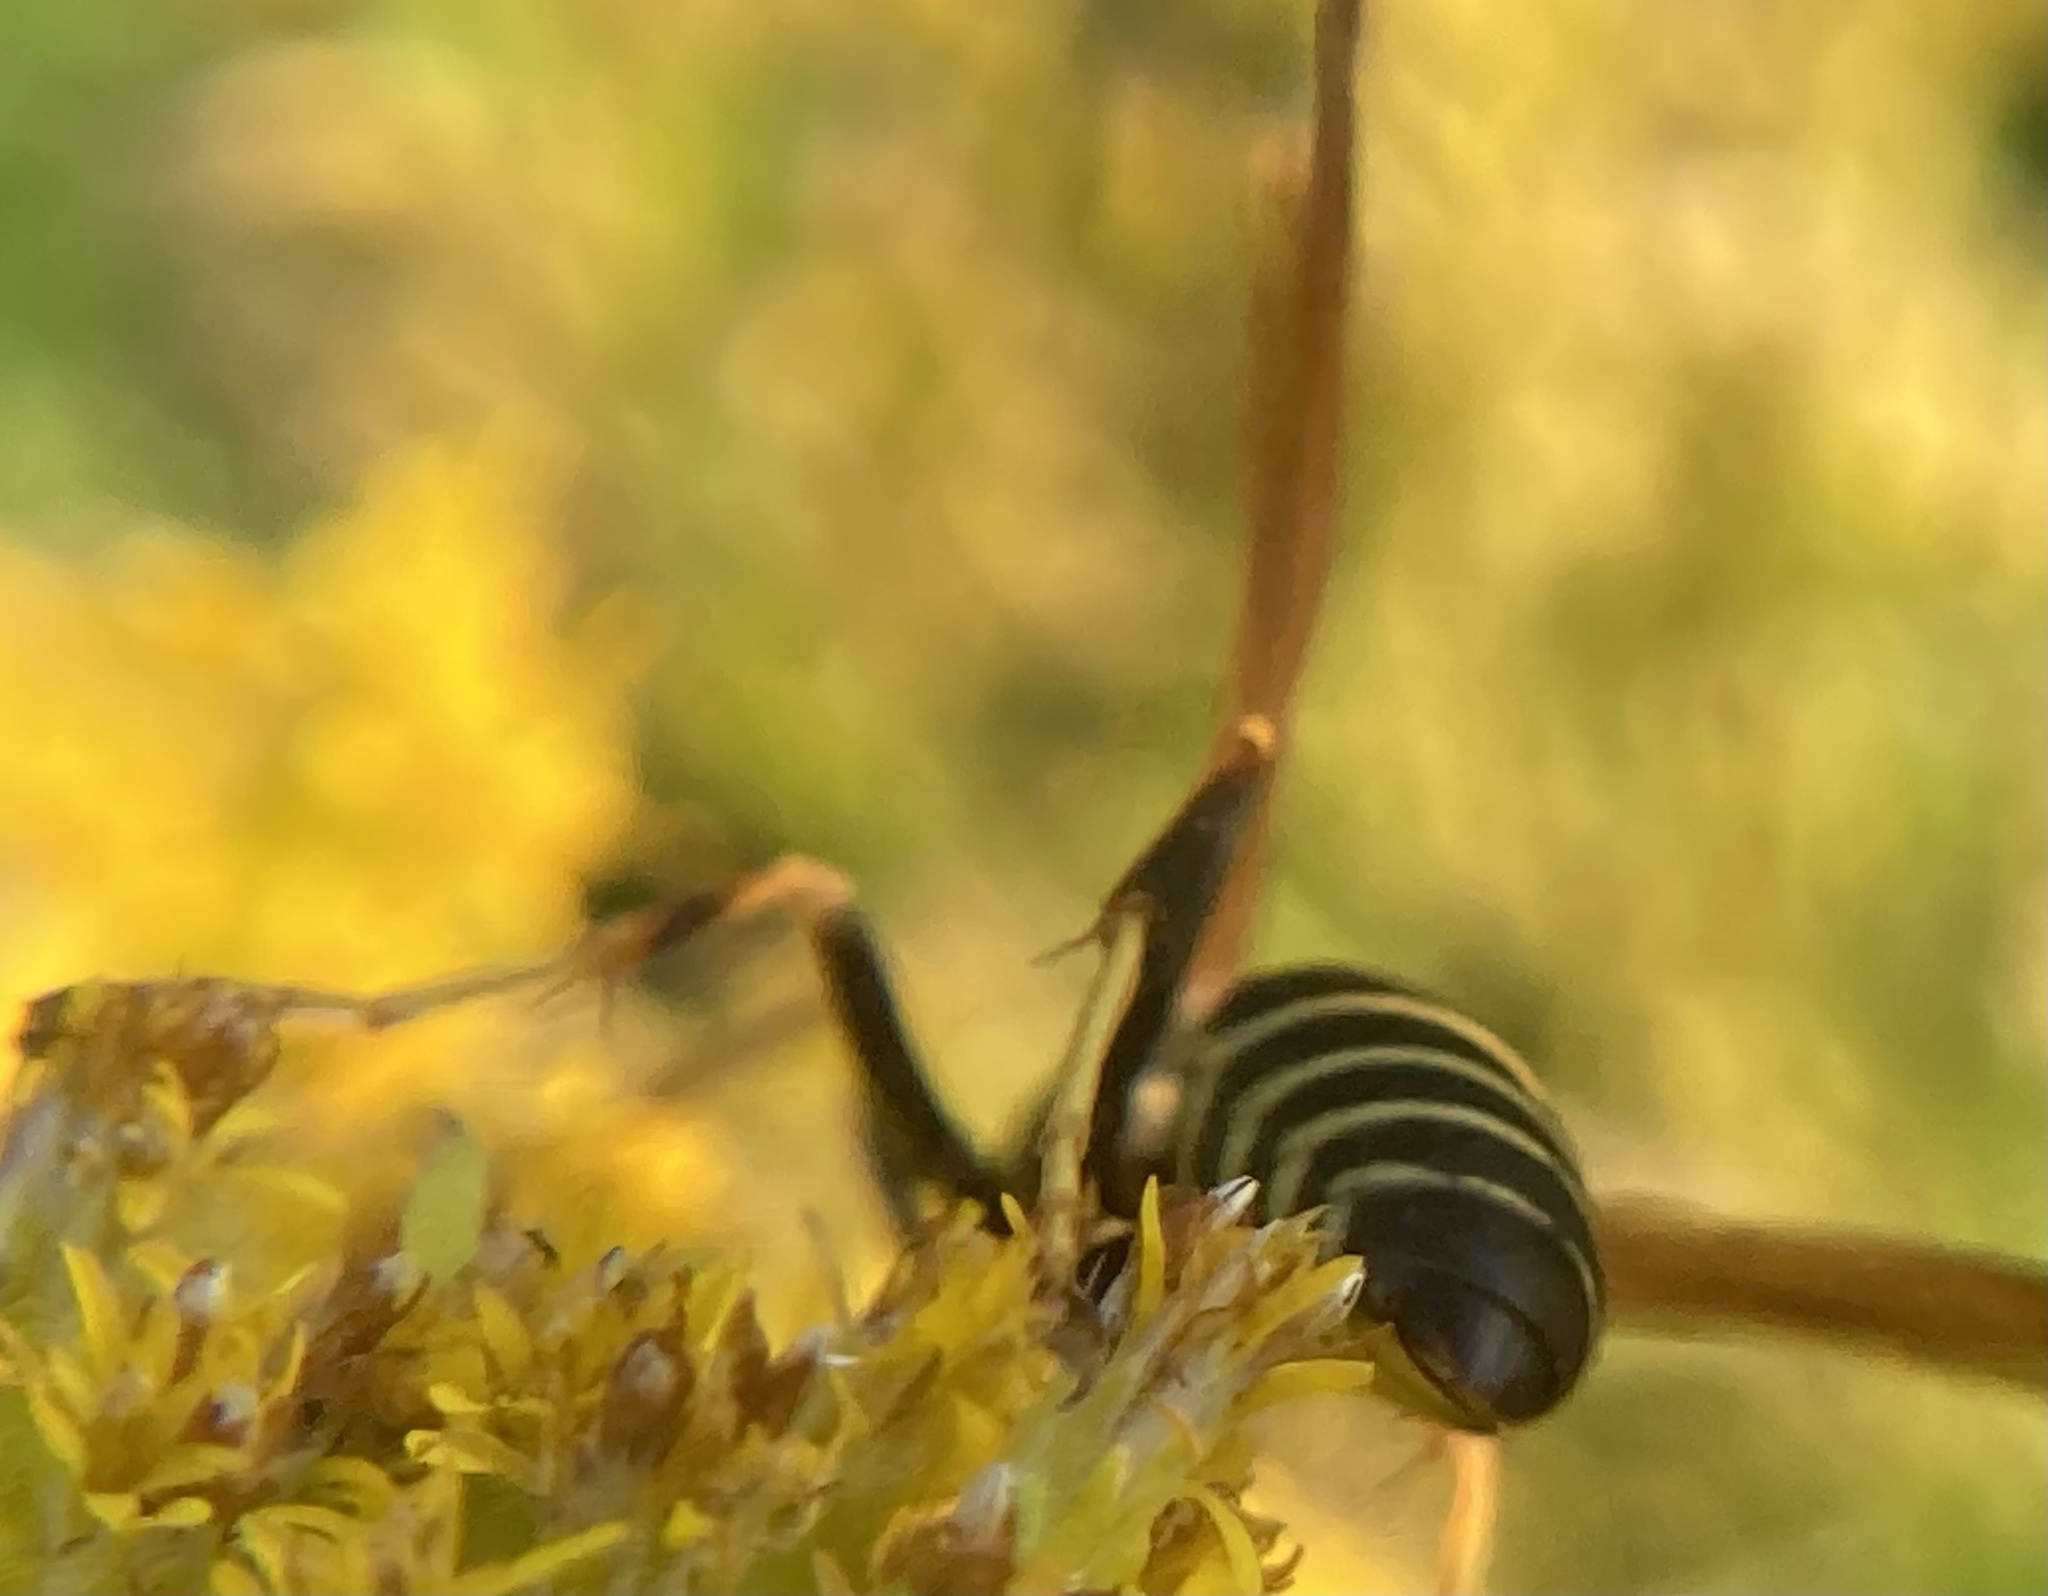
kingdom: Animalia
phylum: Arthropoda
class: Insecta
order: Hymenoptera
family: Eumenidae
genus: Polistes
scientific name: Polistes fuscatus
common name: Dark paper wasp
